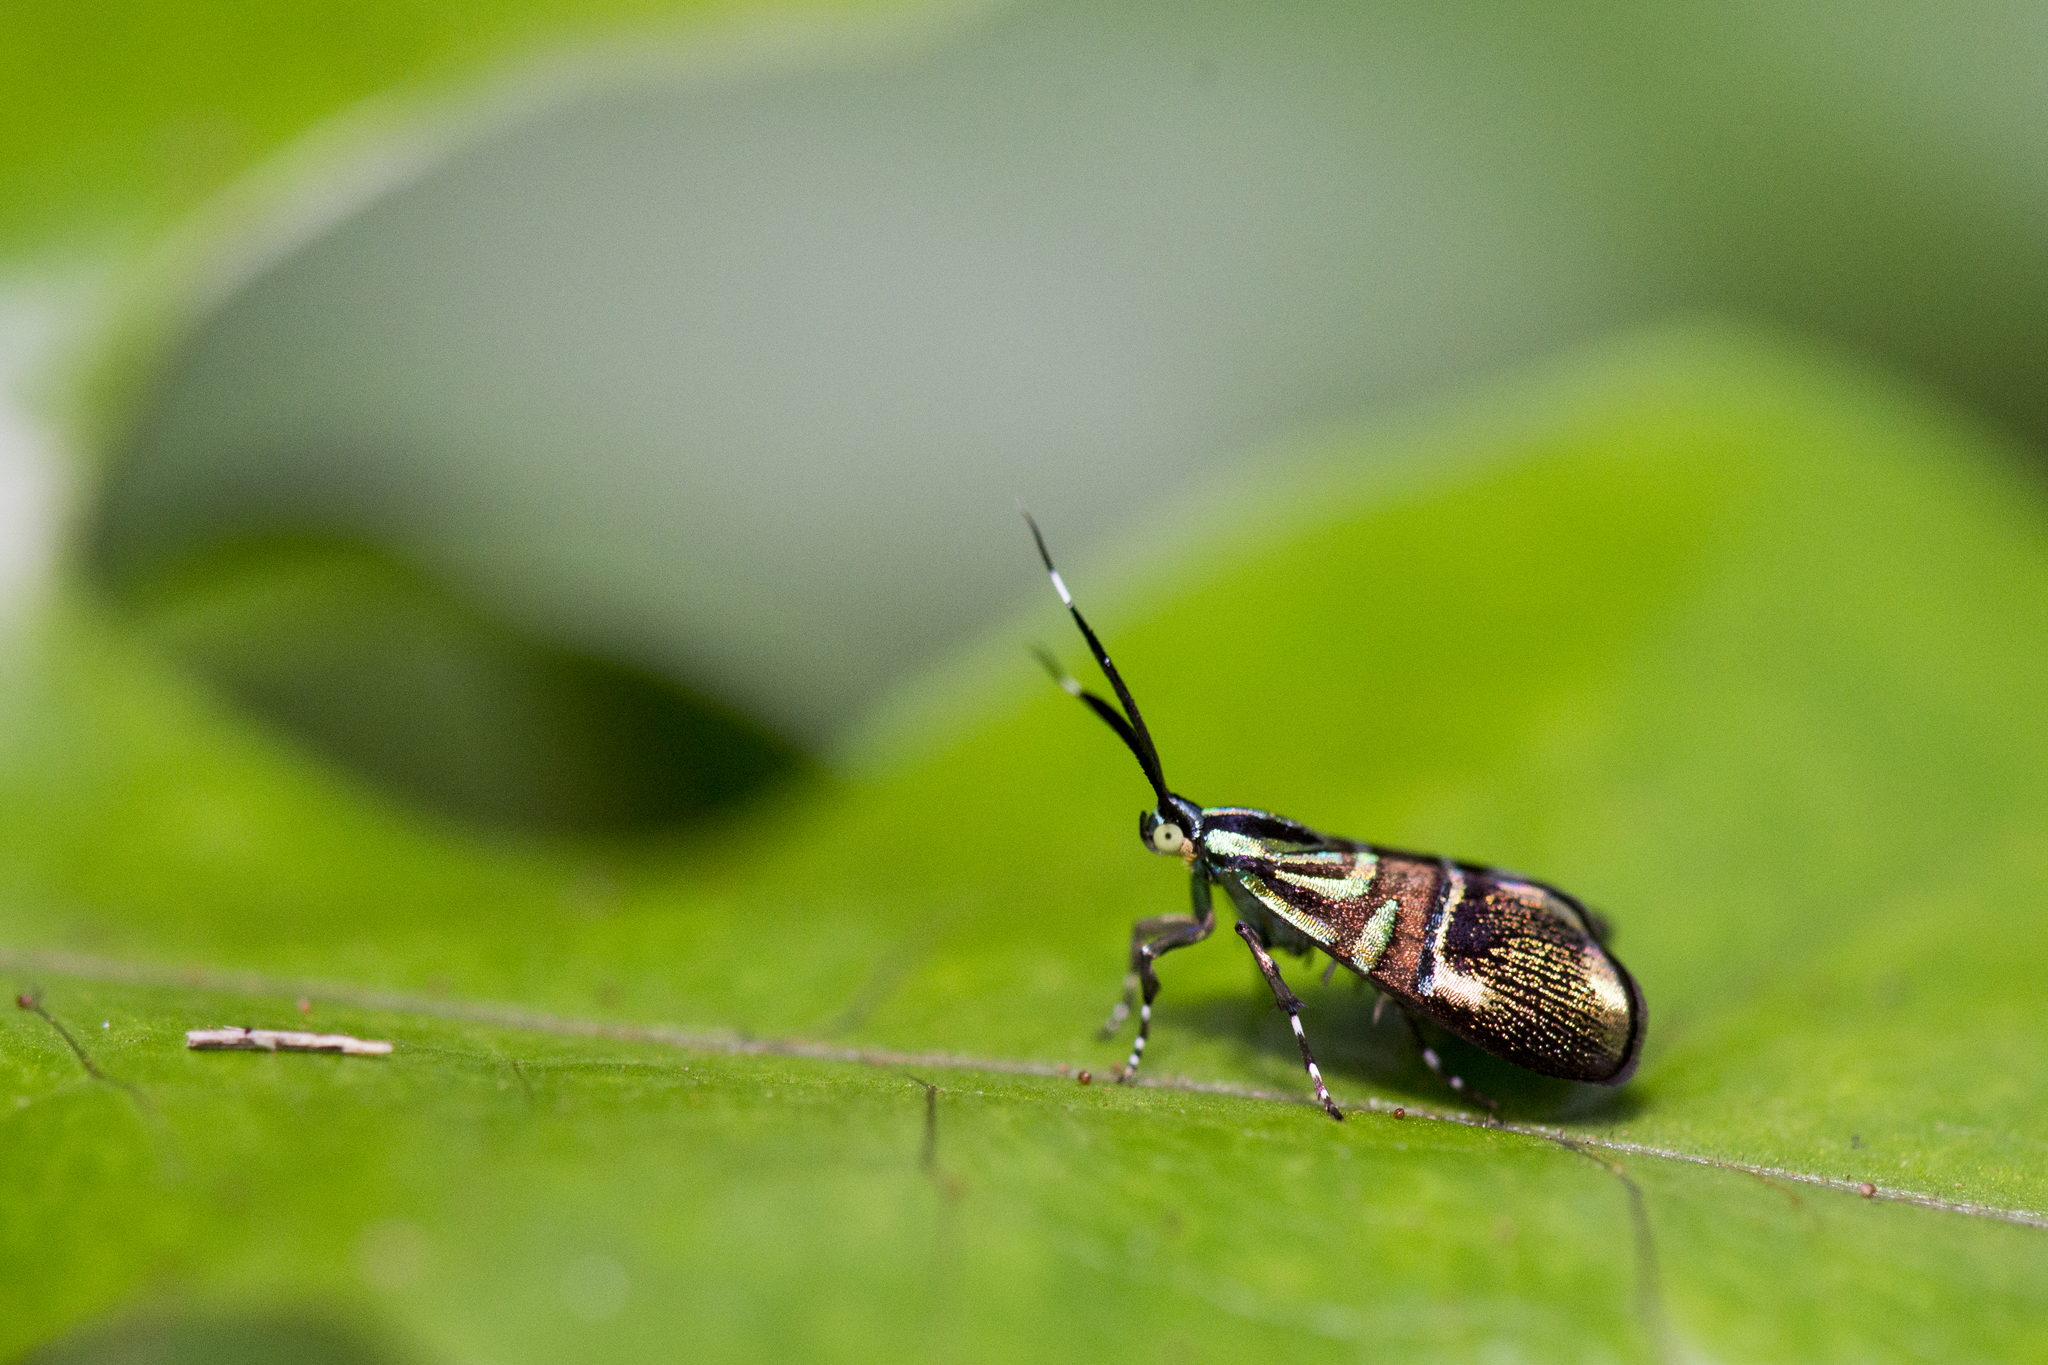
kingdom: Animalia
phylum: Arthropoda
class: Insecta
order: Lepidoptera
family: Choreutidae
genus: Saptha
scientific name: Saptha divitiosa
